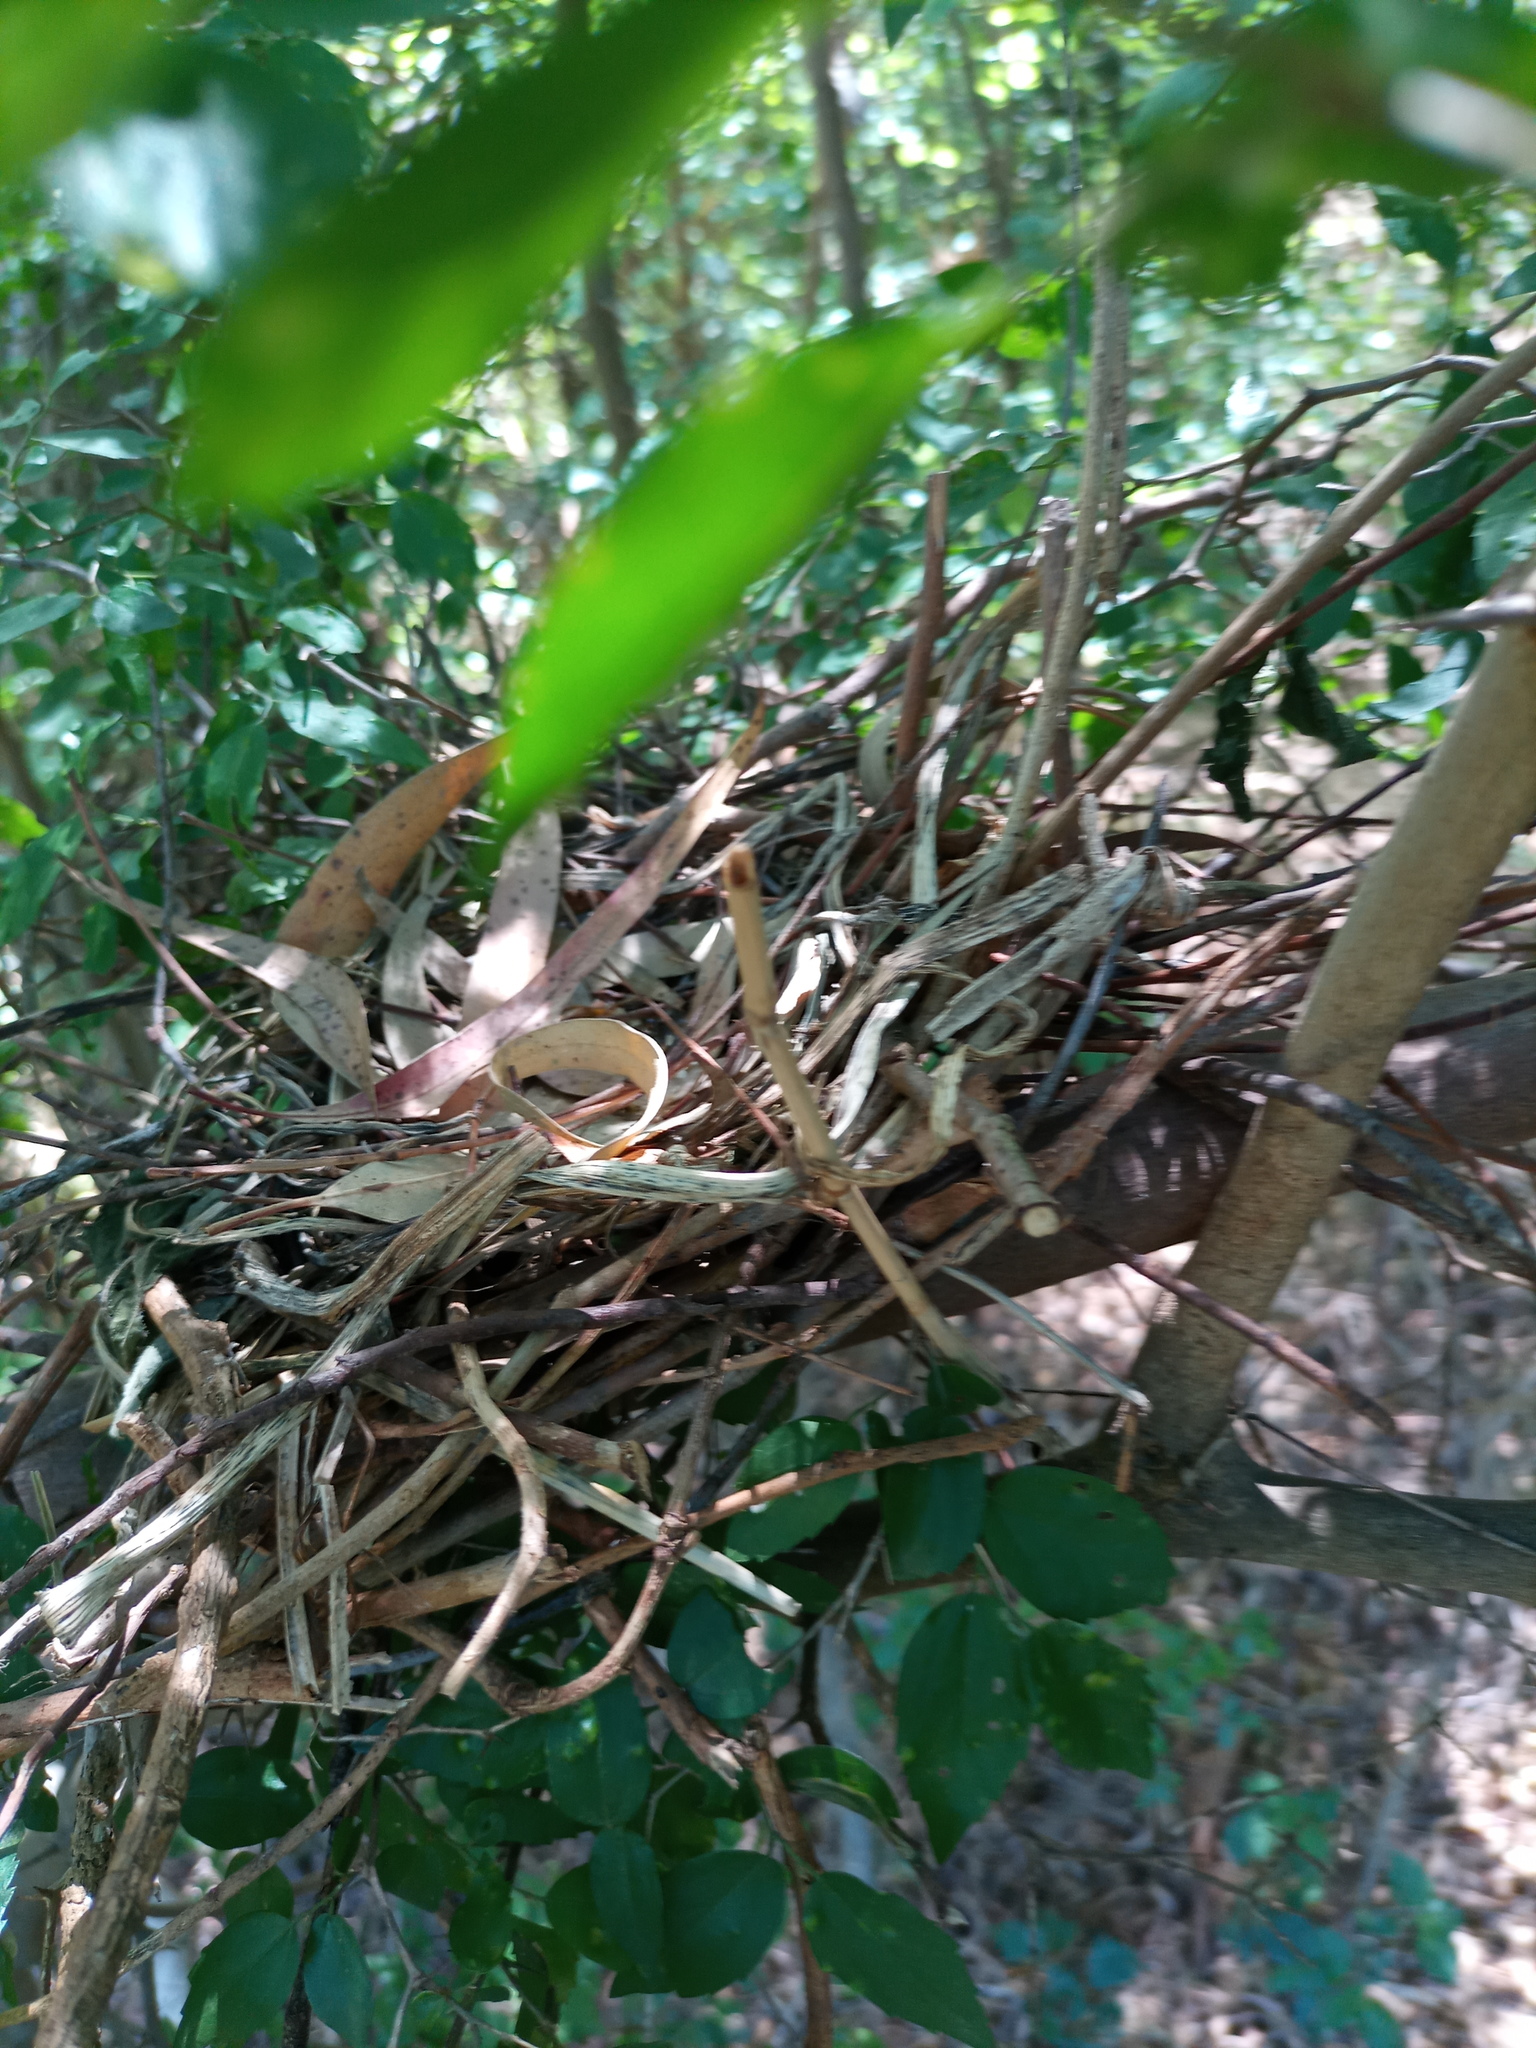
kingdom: Animalia
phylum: Chordata
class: Aves
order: Columbiformes
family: Columbidae
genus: Leptotila
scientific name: Leptotila verreauxi
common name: White-tipped dove
